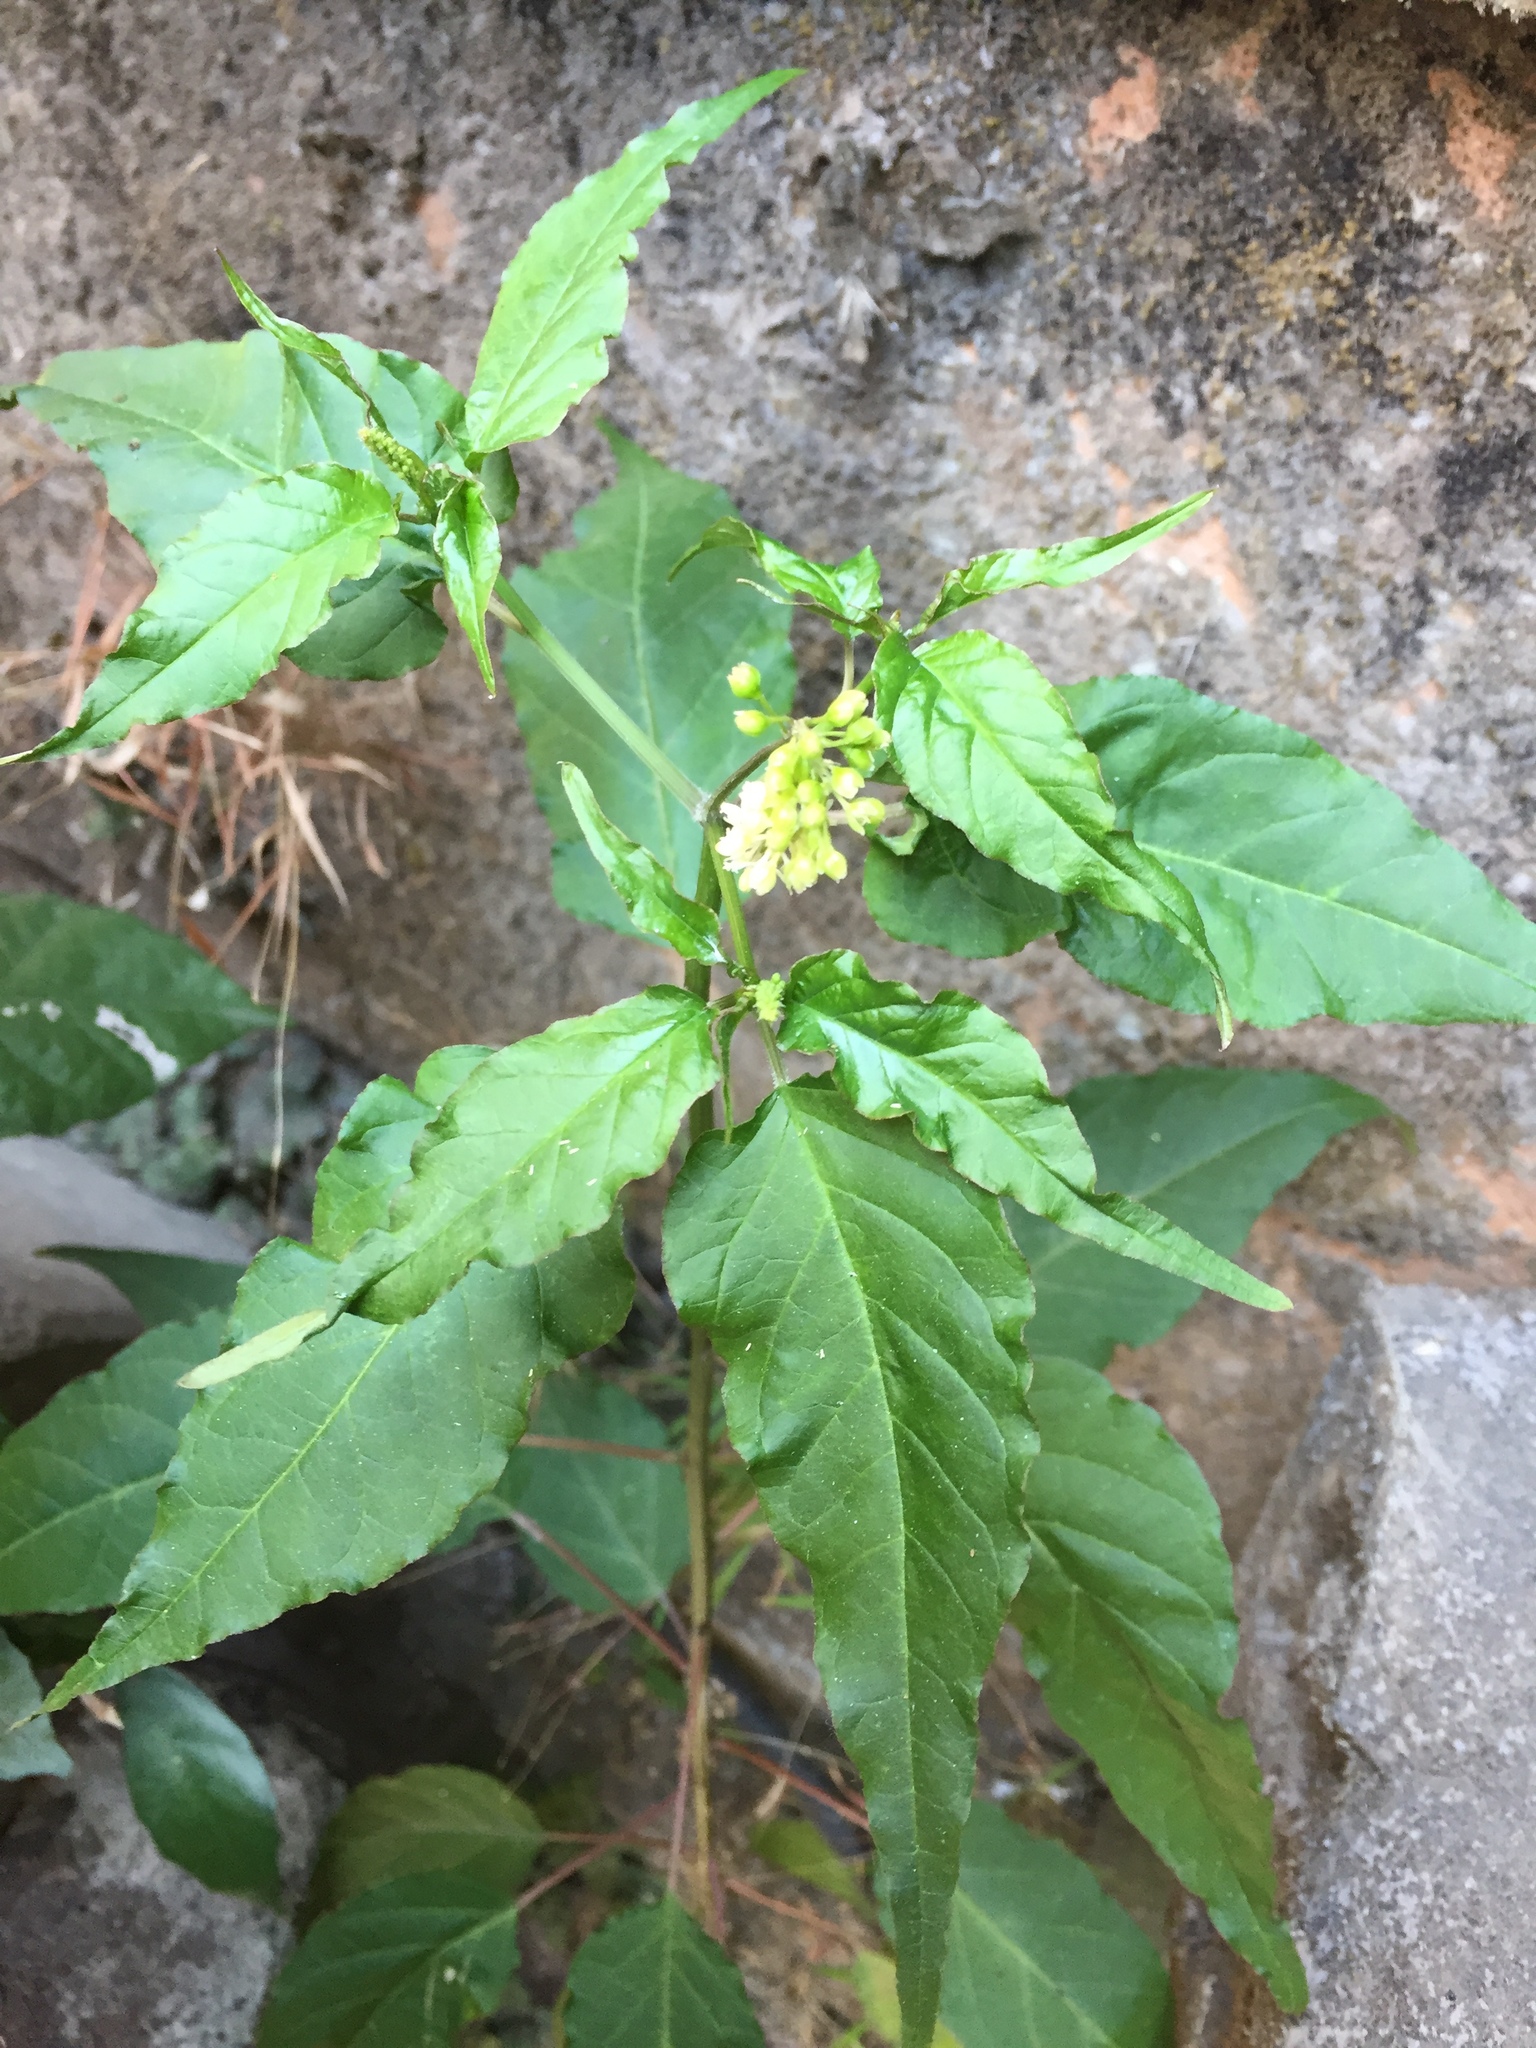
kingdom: Plantae
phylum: Tracheophyta
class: Magnoliopsida
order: Caryophyllales
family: Phytolaccaceae
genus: Rivina
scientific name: Rivina humilis
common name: Rougeplant
